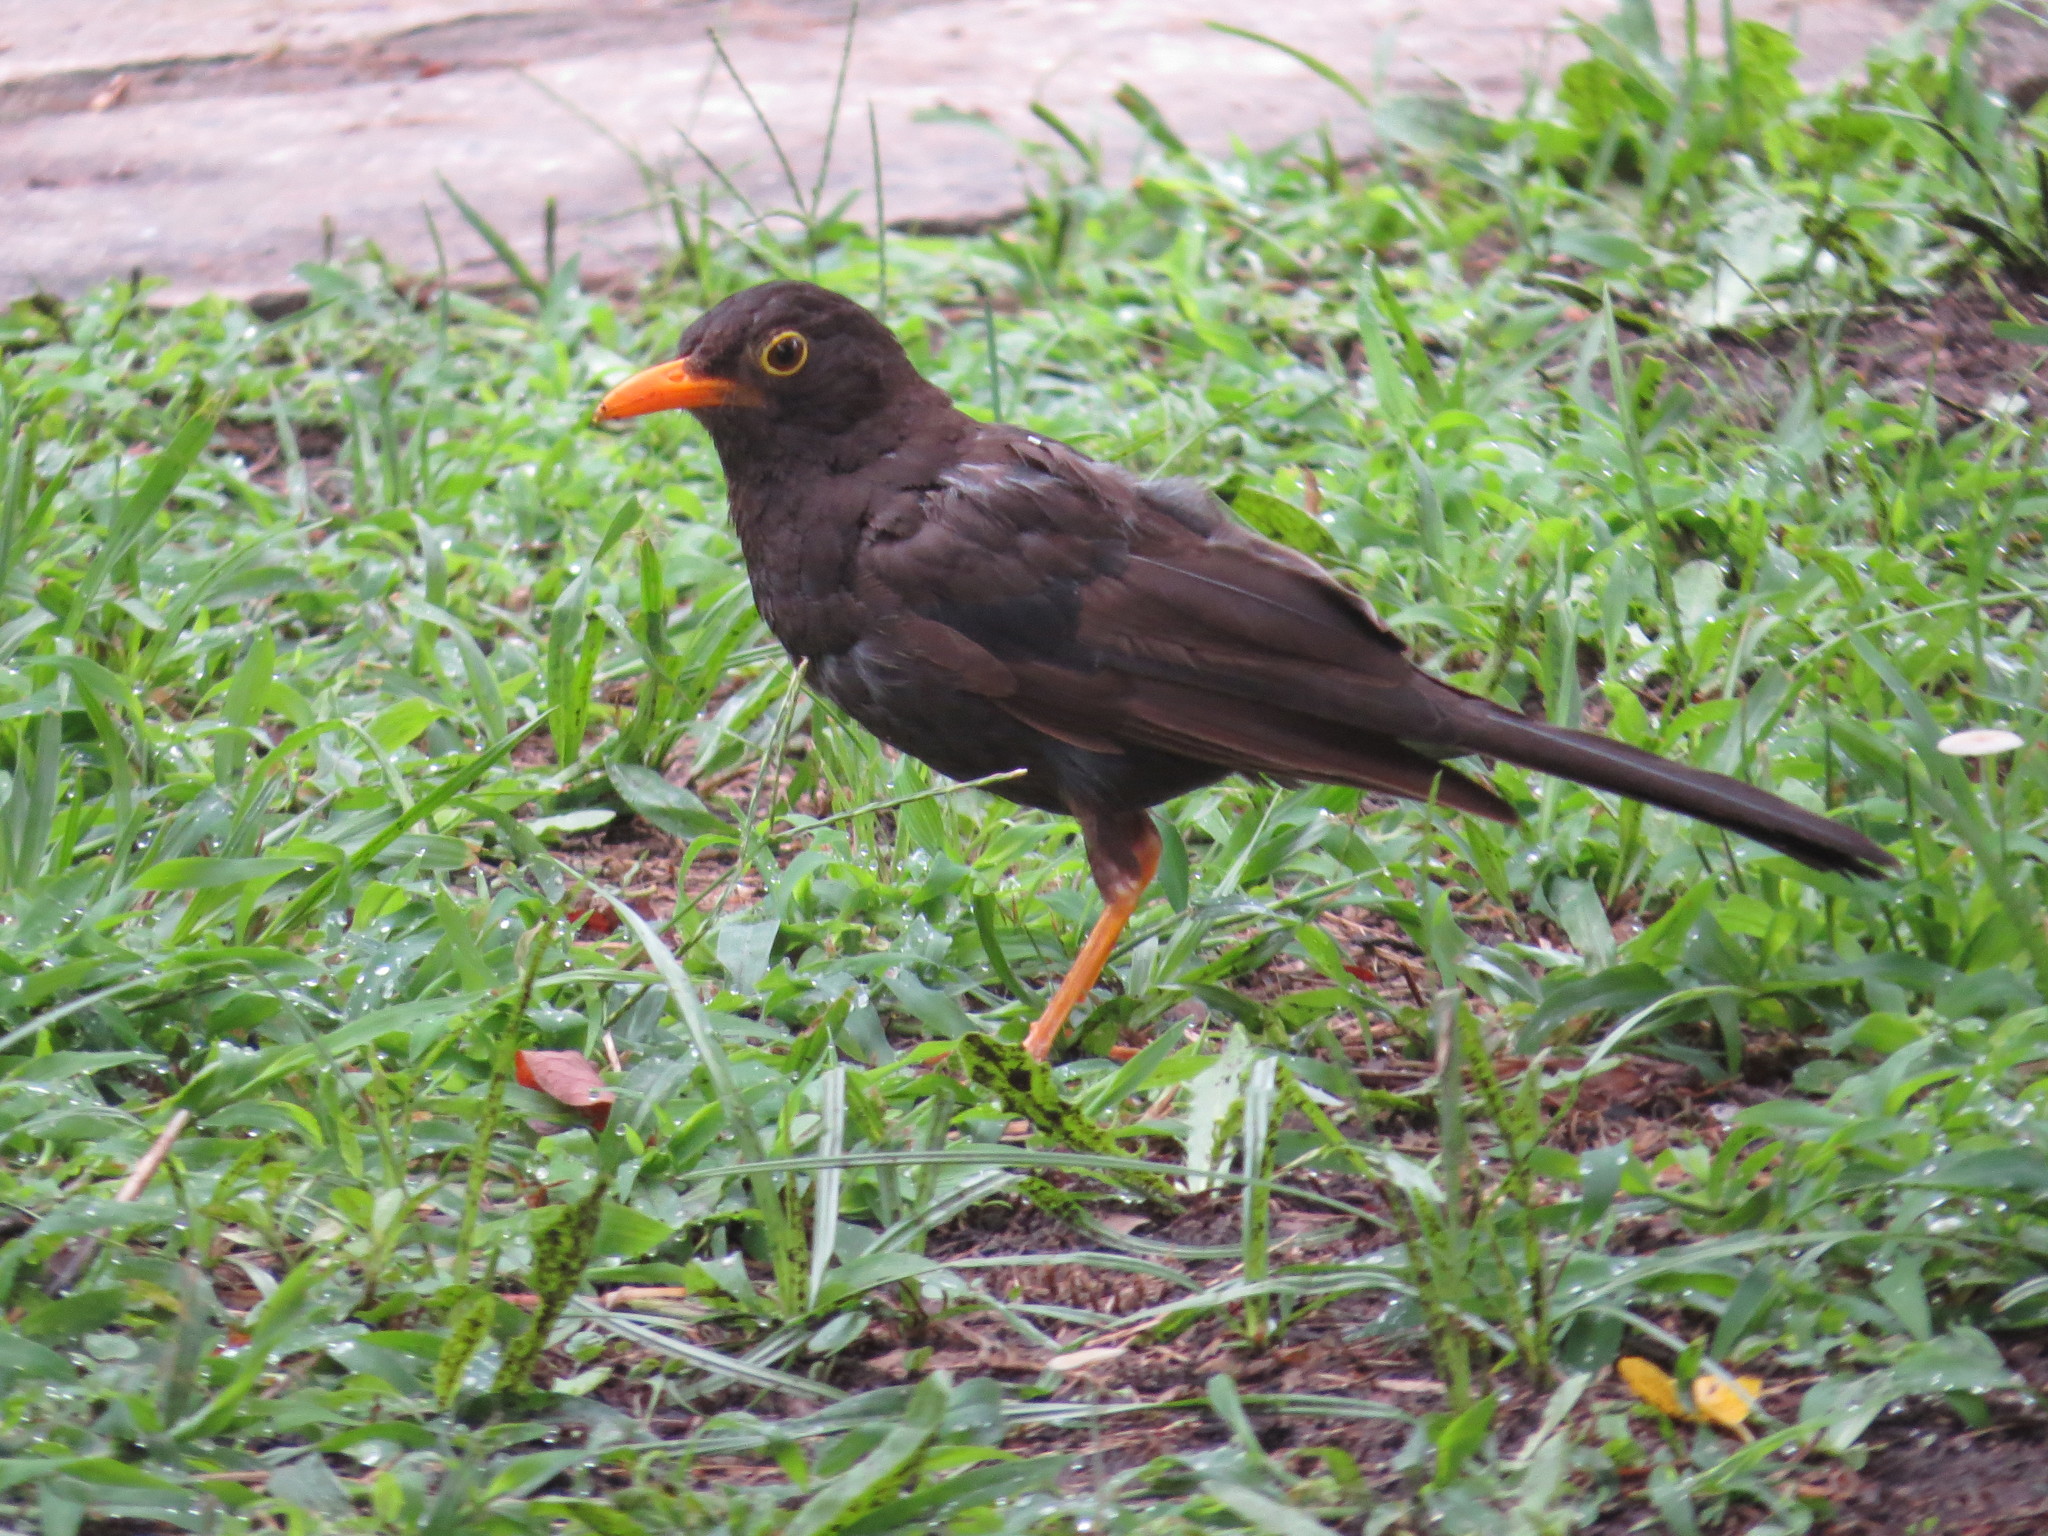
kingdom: Animalia
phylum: Chordata
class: Aves
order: Passeriformes
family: Turdidae
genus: Turdus
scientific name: Turdus chiguanco
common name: Chiguanco thrush
